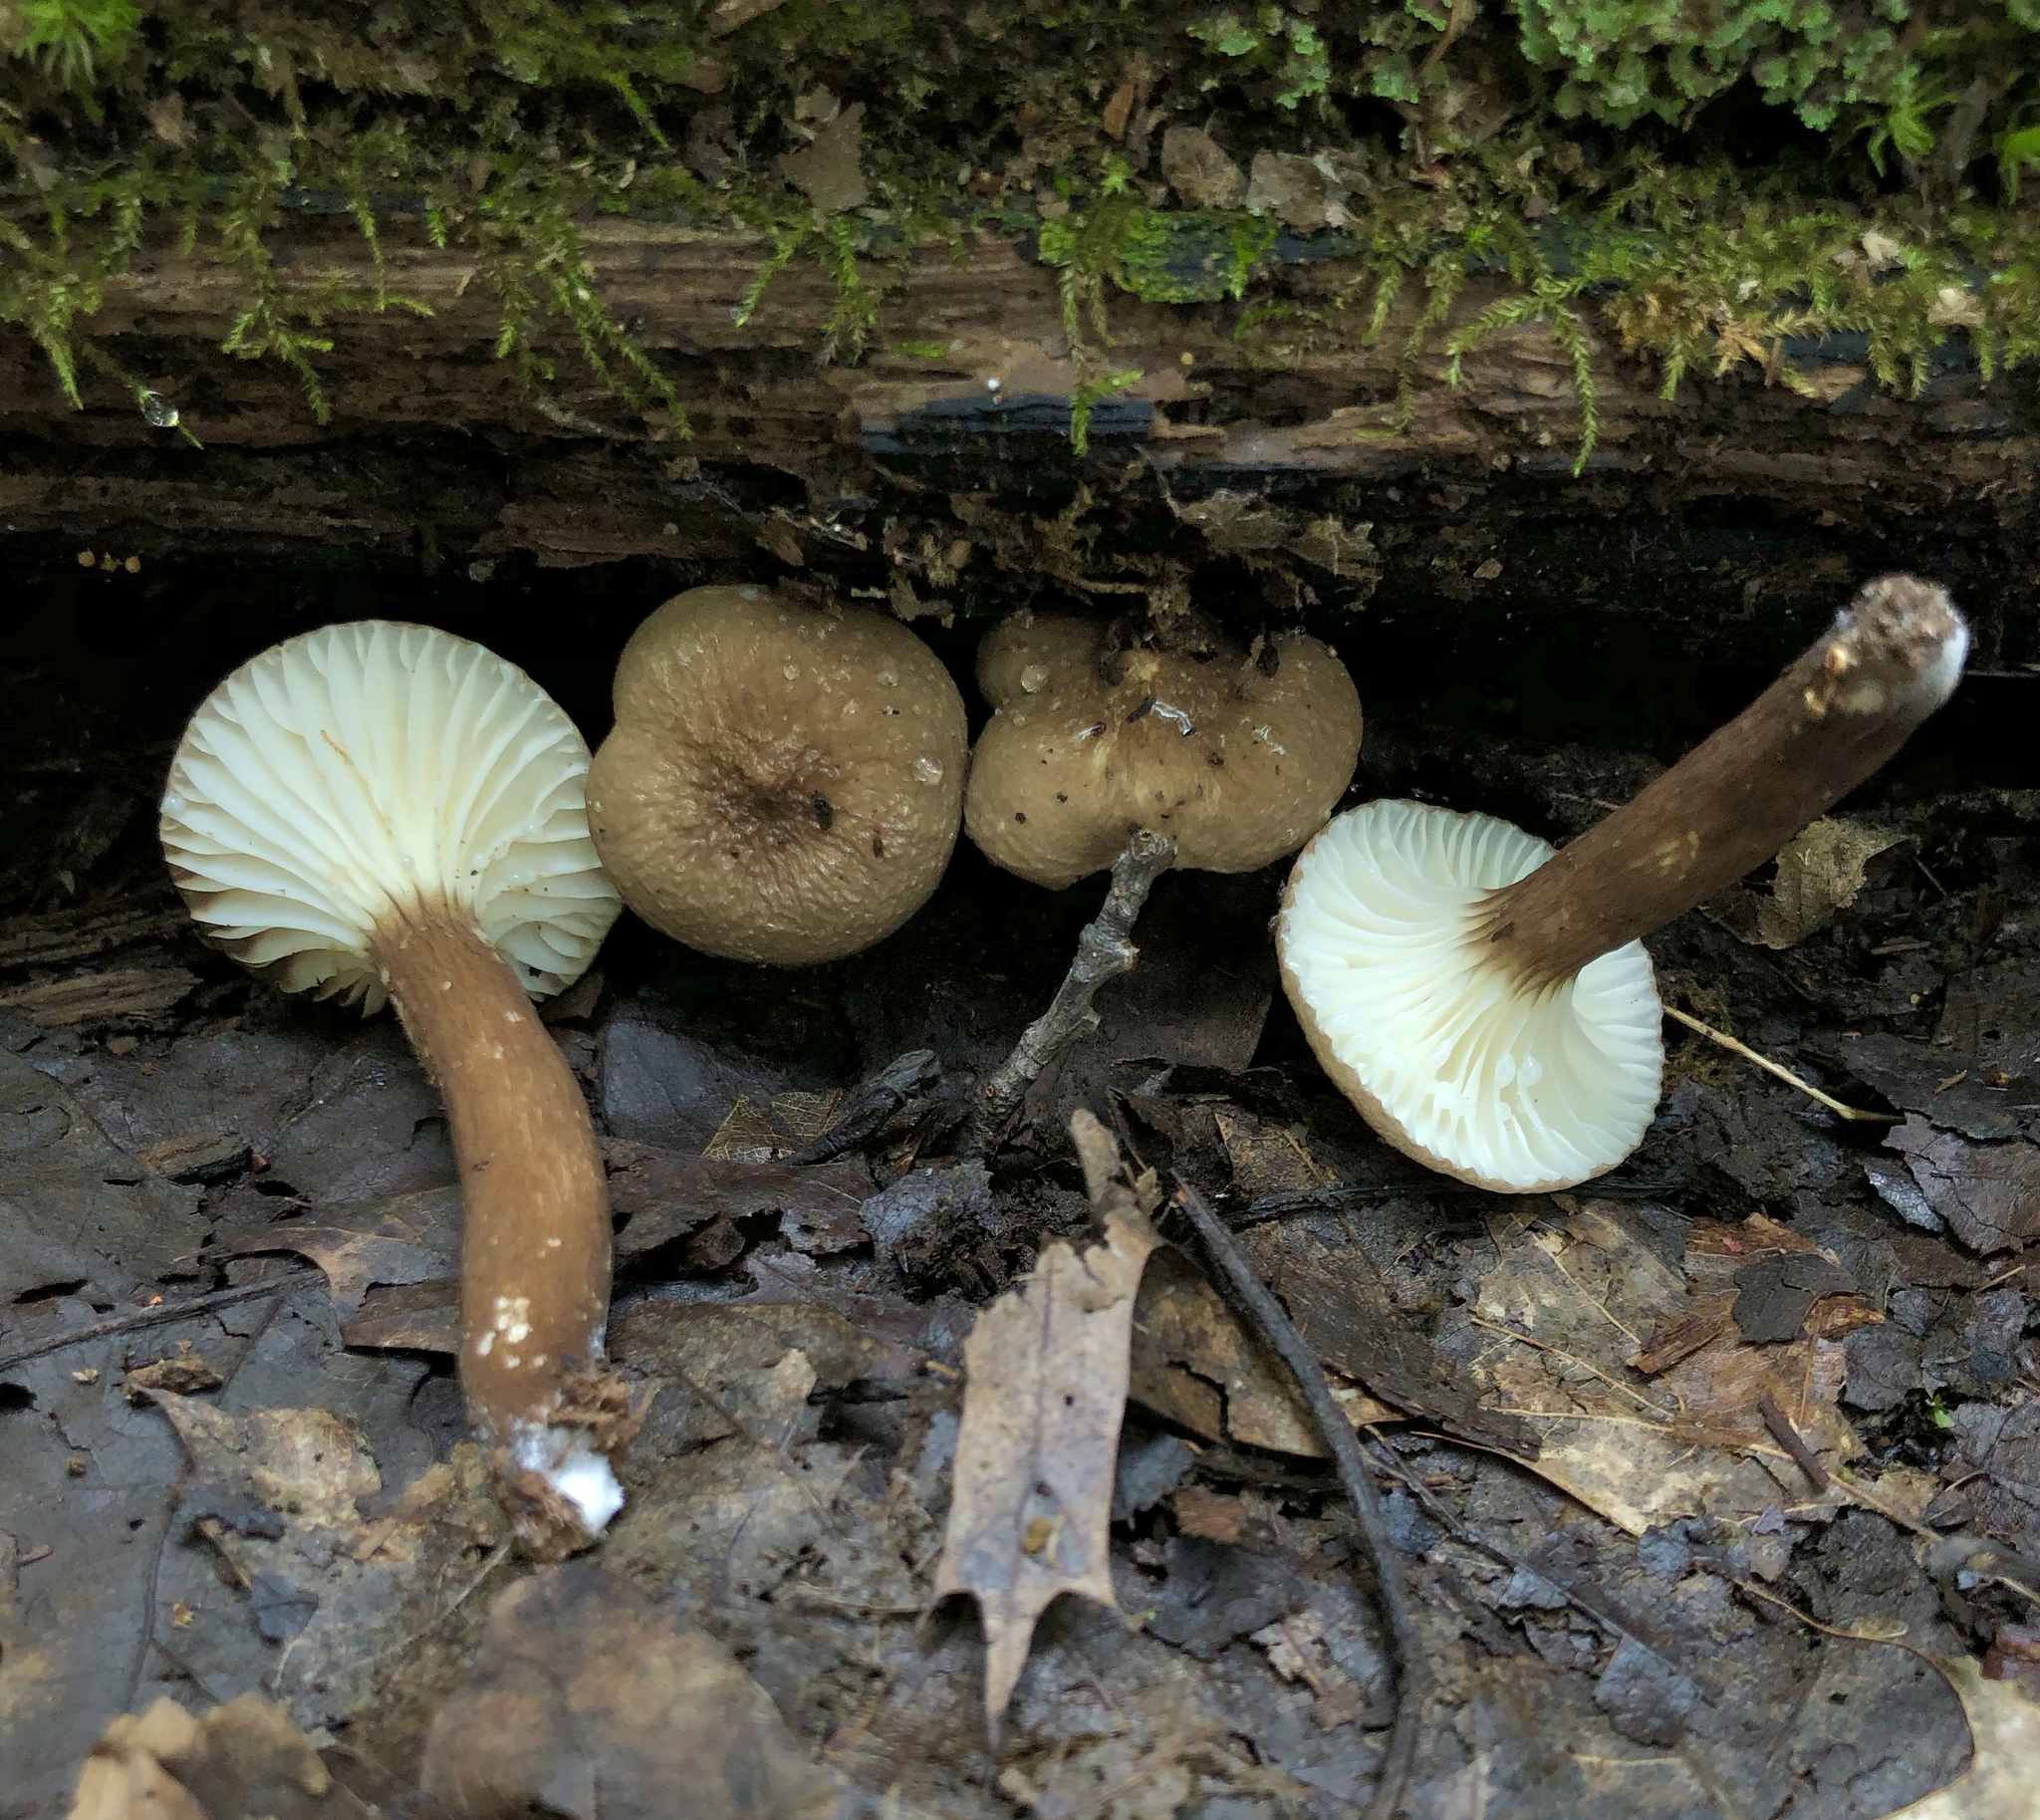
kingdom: Fungi
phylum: Basidiomycota
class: Agaricomycetes
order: Russulales
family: Russulaceae
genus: Lactarius
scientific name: Lactarius gerardii
